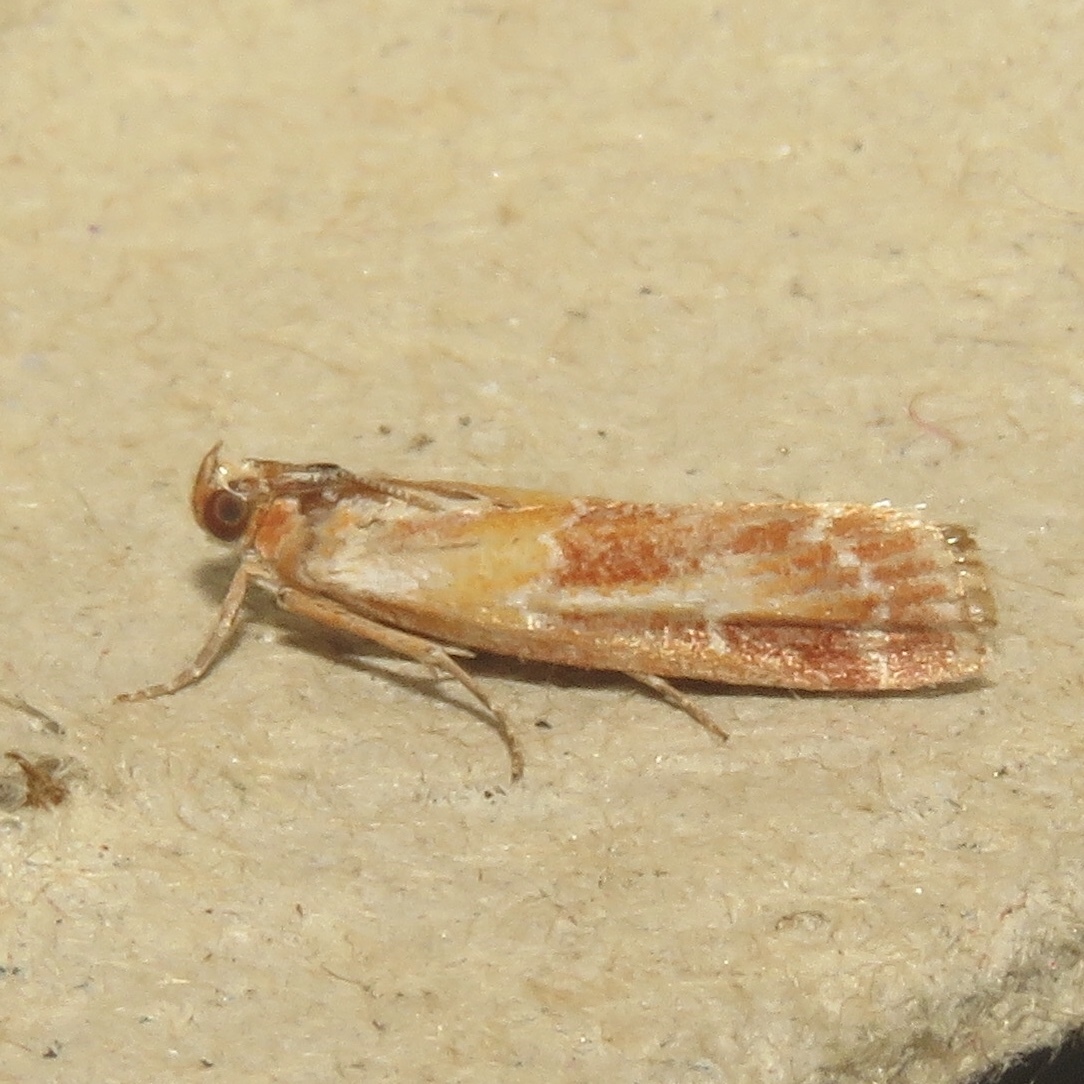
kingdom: Animalia
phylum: Arthropoda
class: Insecta
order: Lepidoptera
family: Pyralidae
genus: Dioryctria
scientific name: Dioryctria disclusa
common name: Rusty pine cone moth
